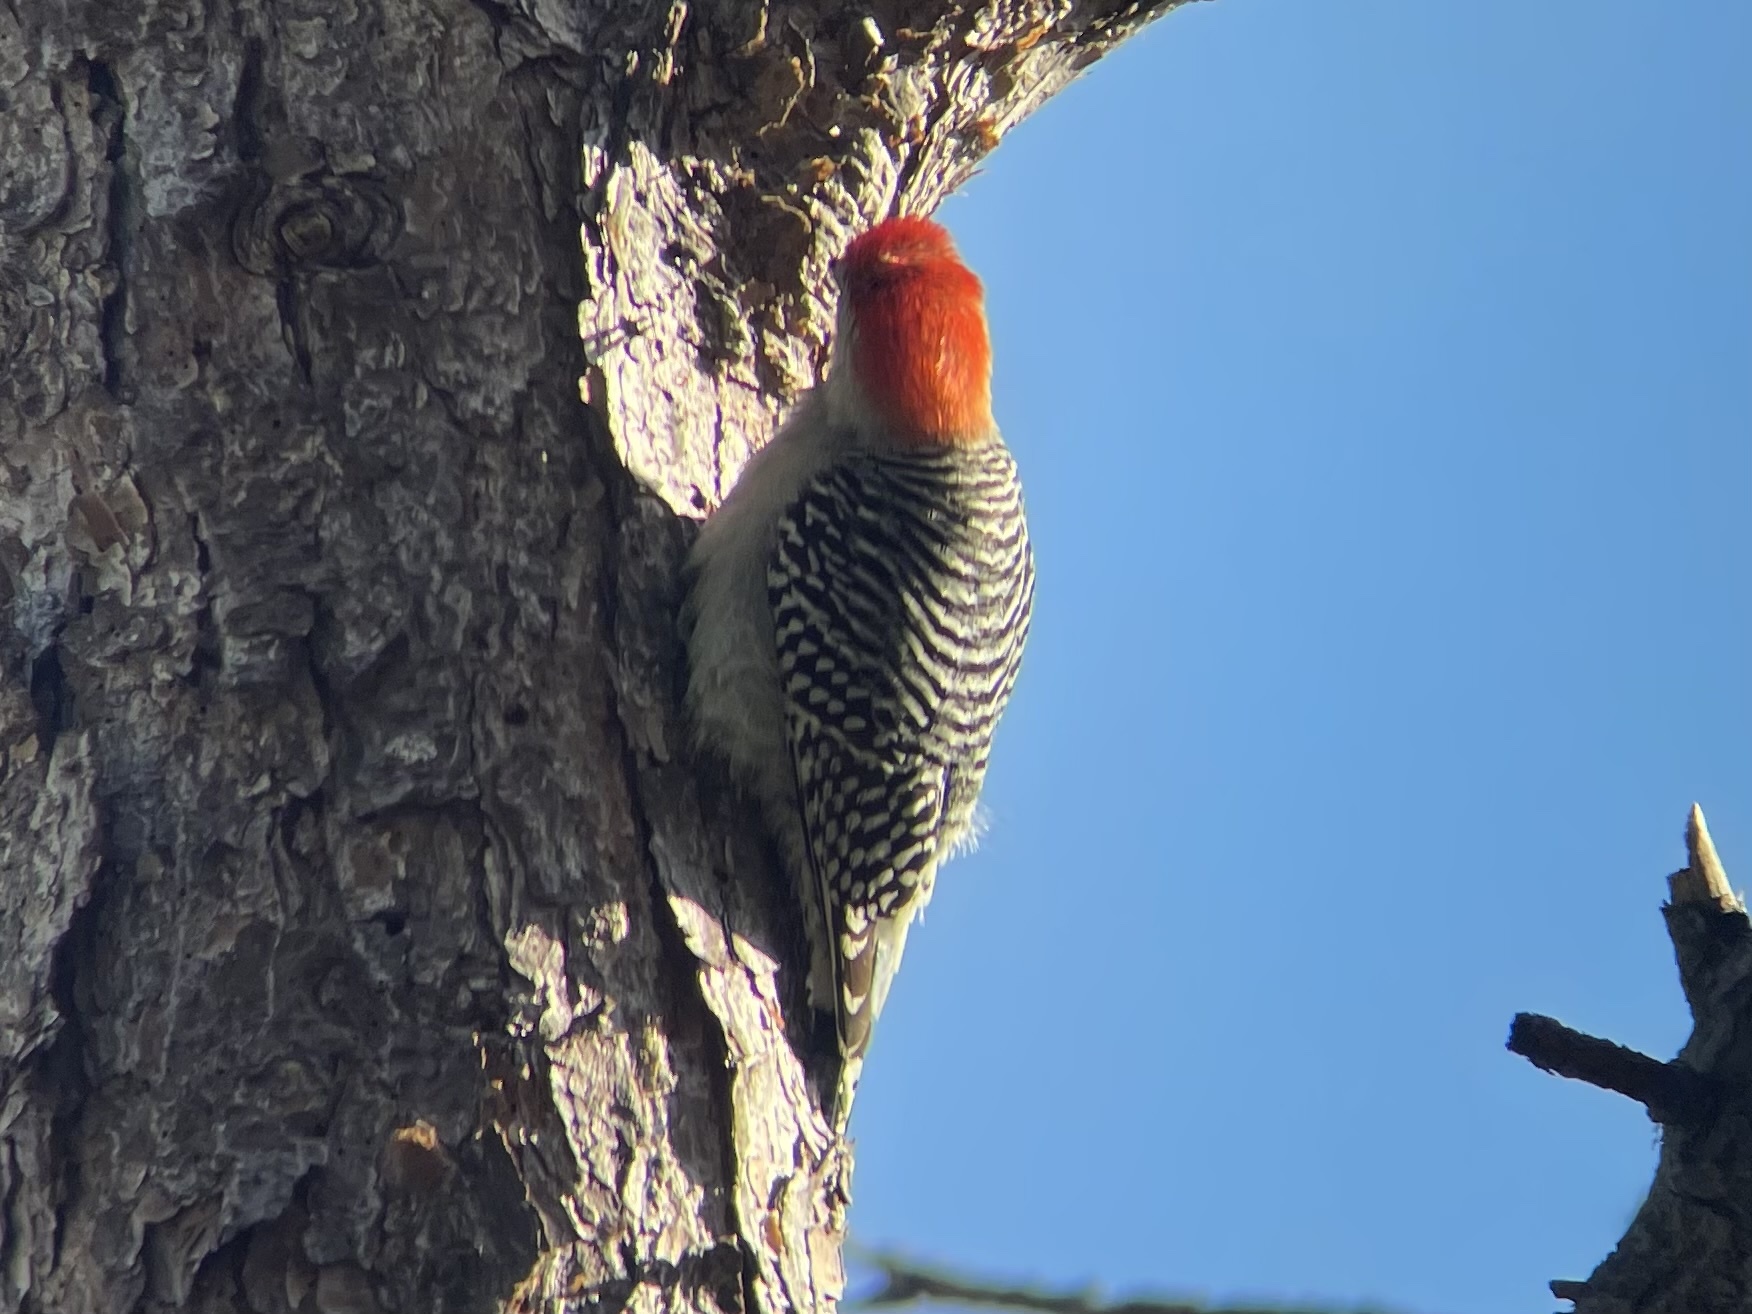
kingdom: Animalia
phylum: Chordata
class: Aves
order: Piciformes
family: Picidae
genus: Melanerpes
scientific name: Melanerpes carolinus
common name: Red-bellied woodpecker
